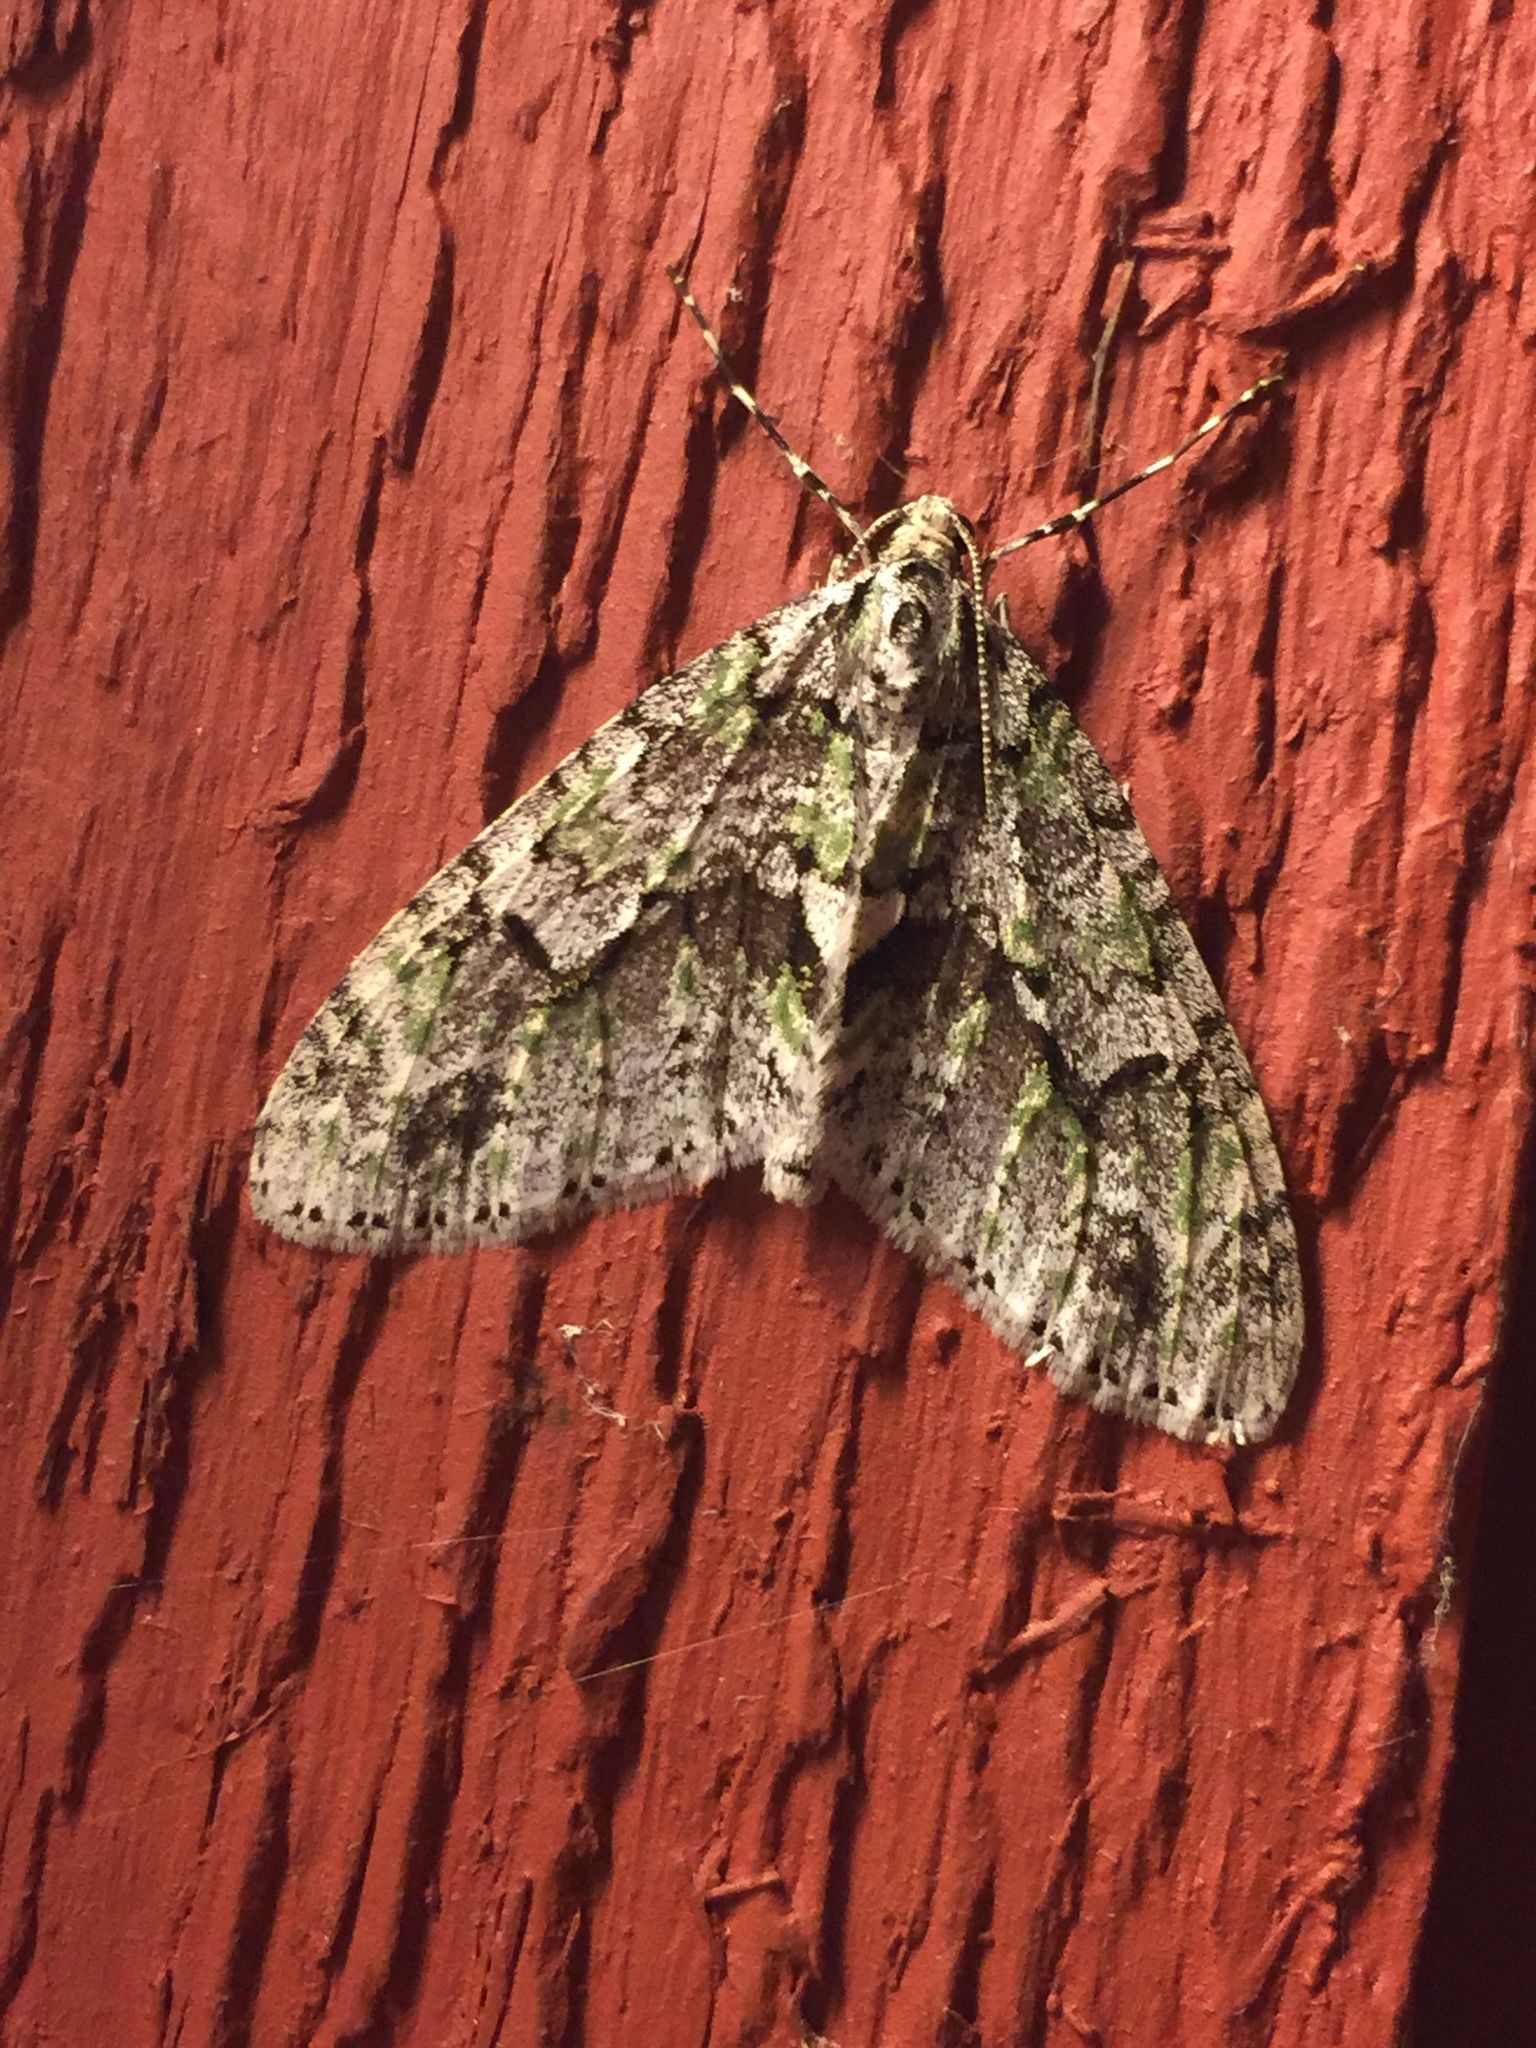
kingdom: Animalia
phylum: Arthropoda
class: Insecta
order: Lepidoptera
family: Geometridae
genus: Cladara
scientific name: Cladara limitaria
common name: Mottled gray carpet
